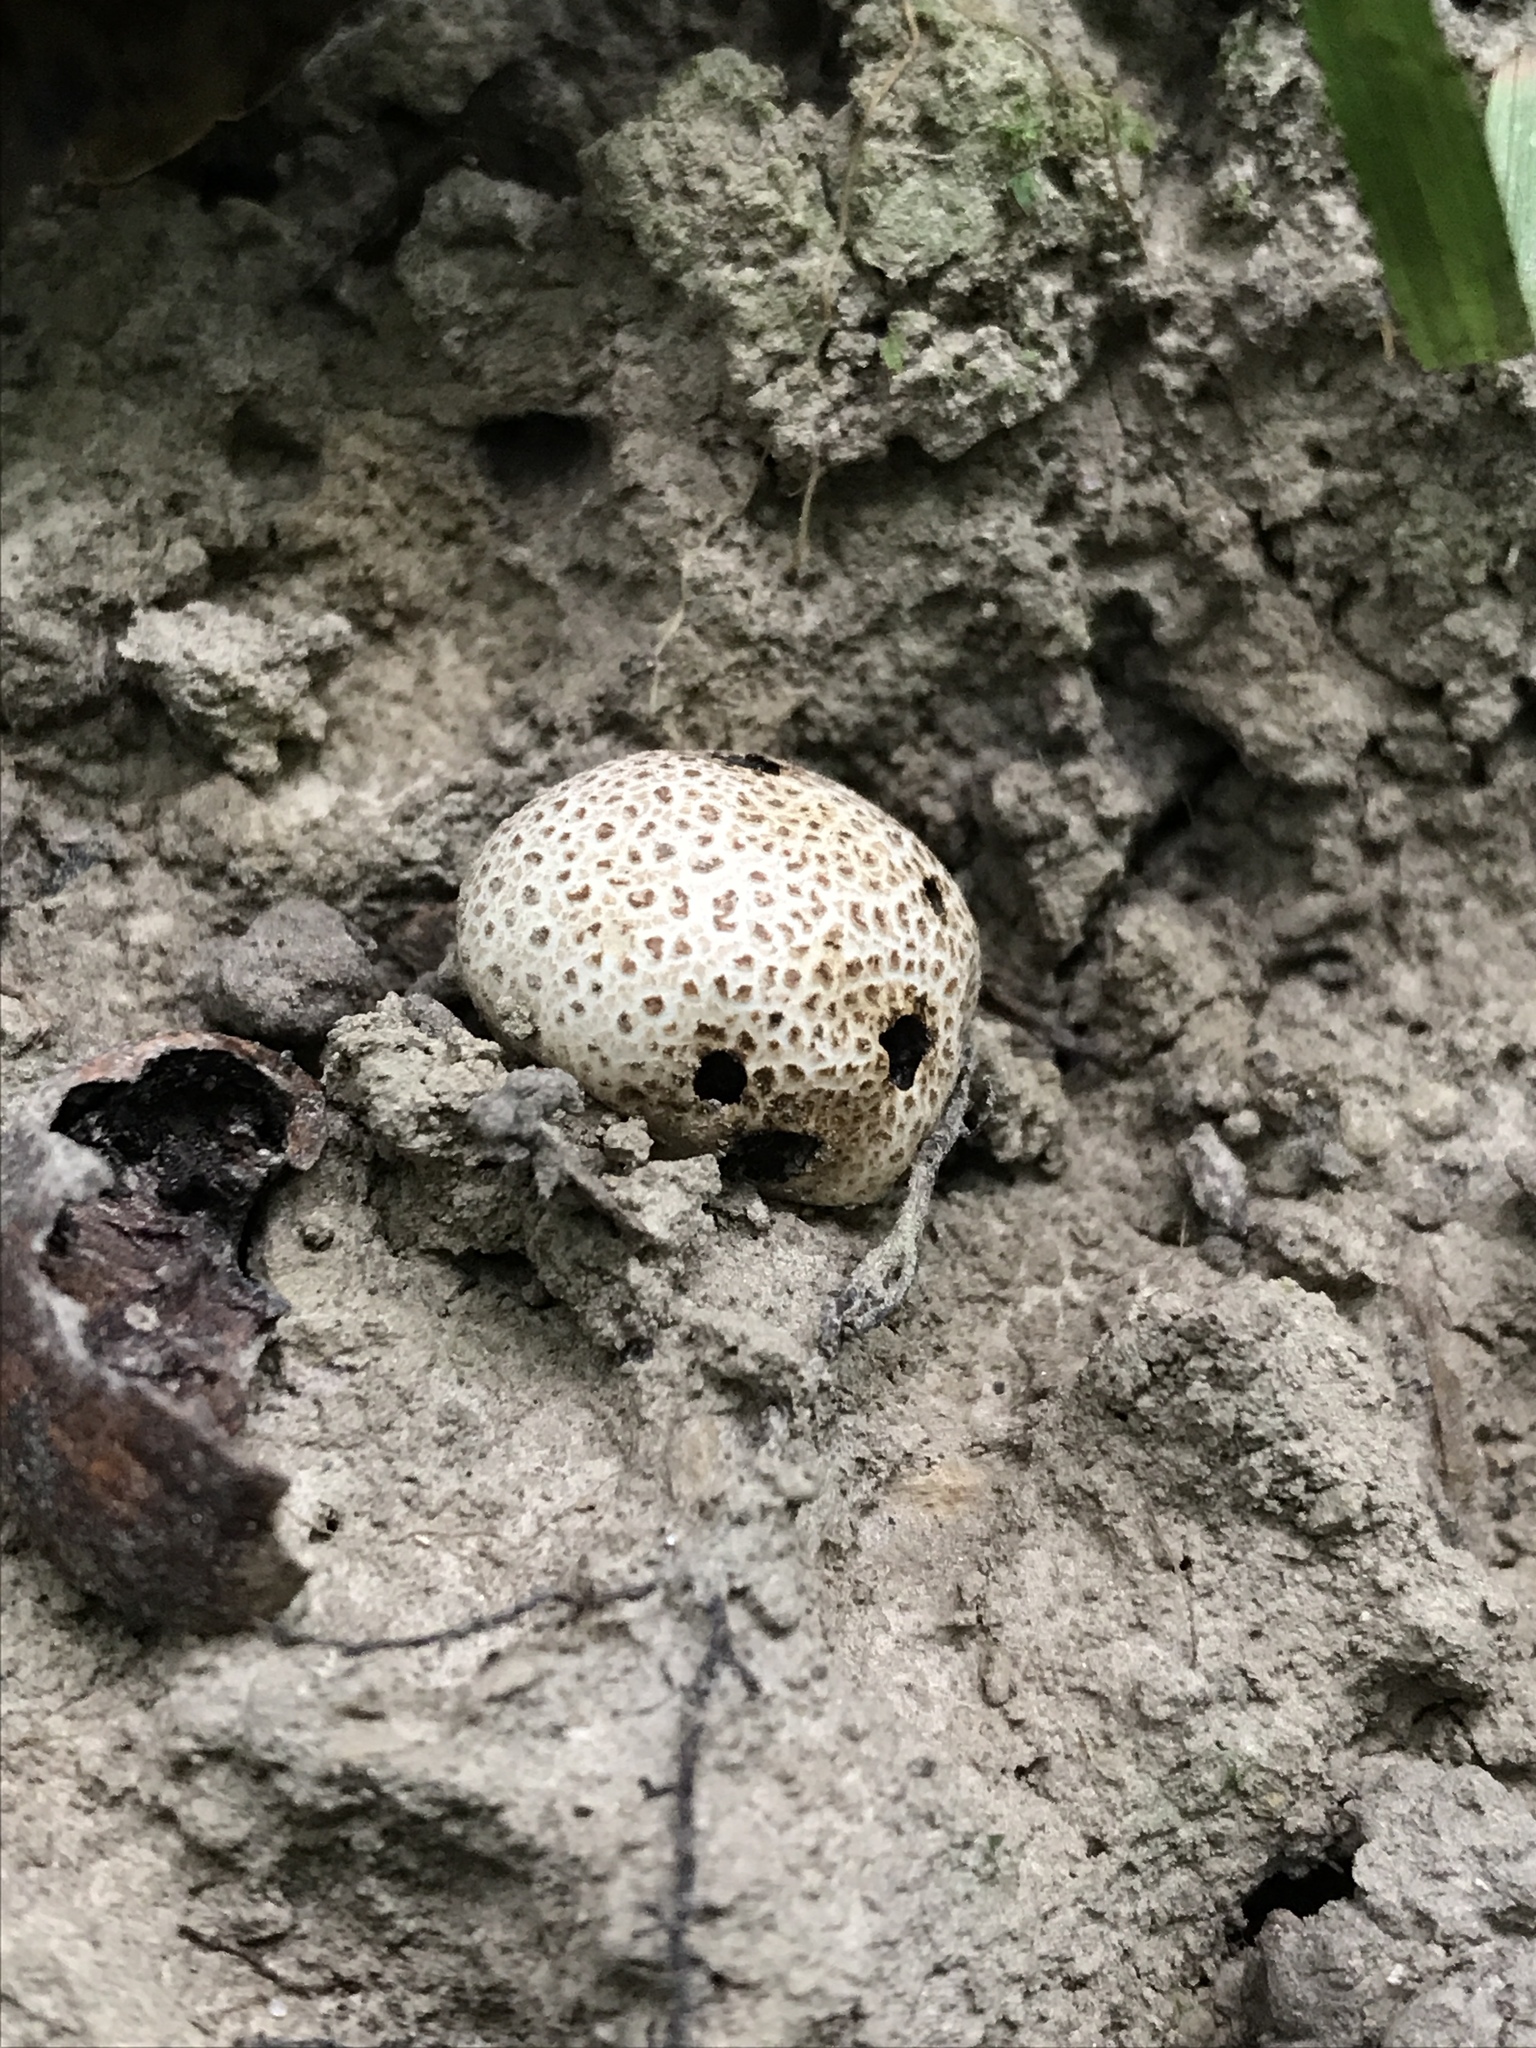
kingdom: Fungi
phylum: Basidiomycota
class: Agaricomycetes
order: Boletales
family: Sclerodermataceae
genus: Scleroderma
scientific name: Scleroderma citrinum
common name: Common earthball
